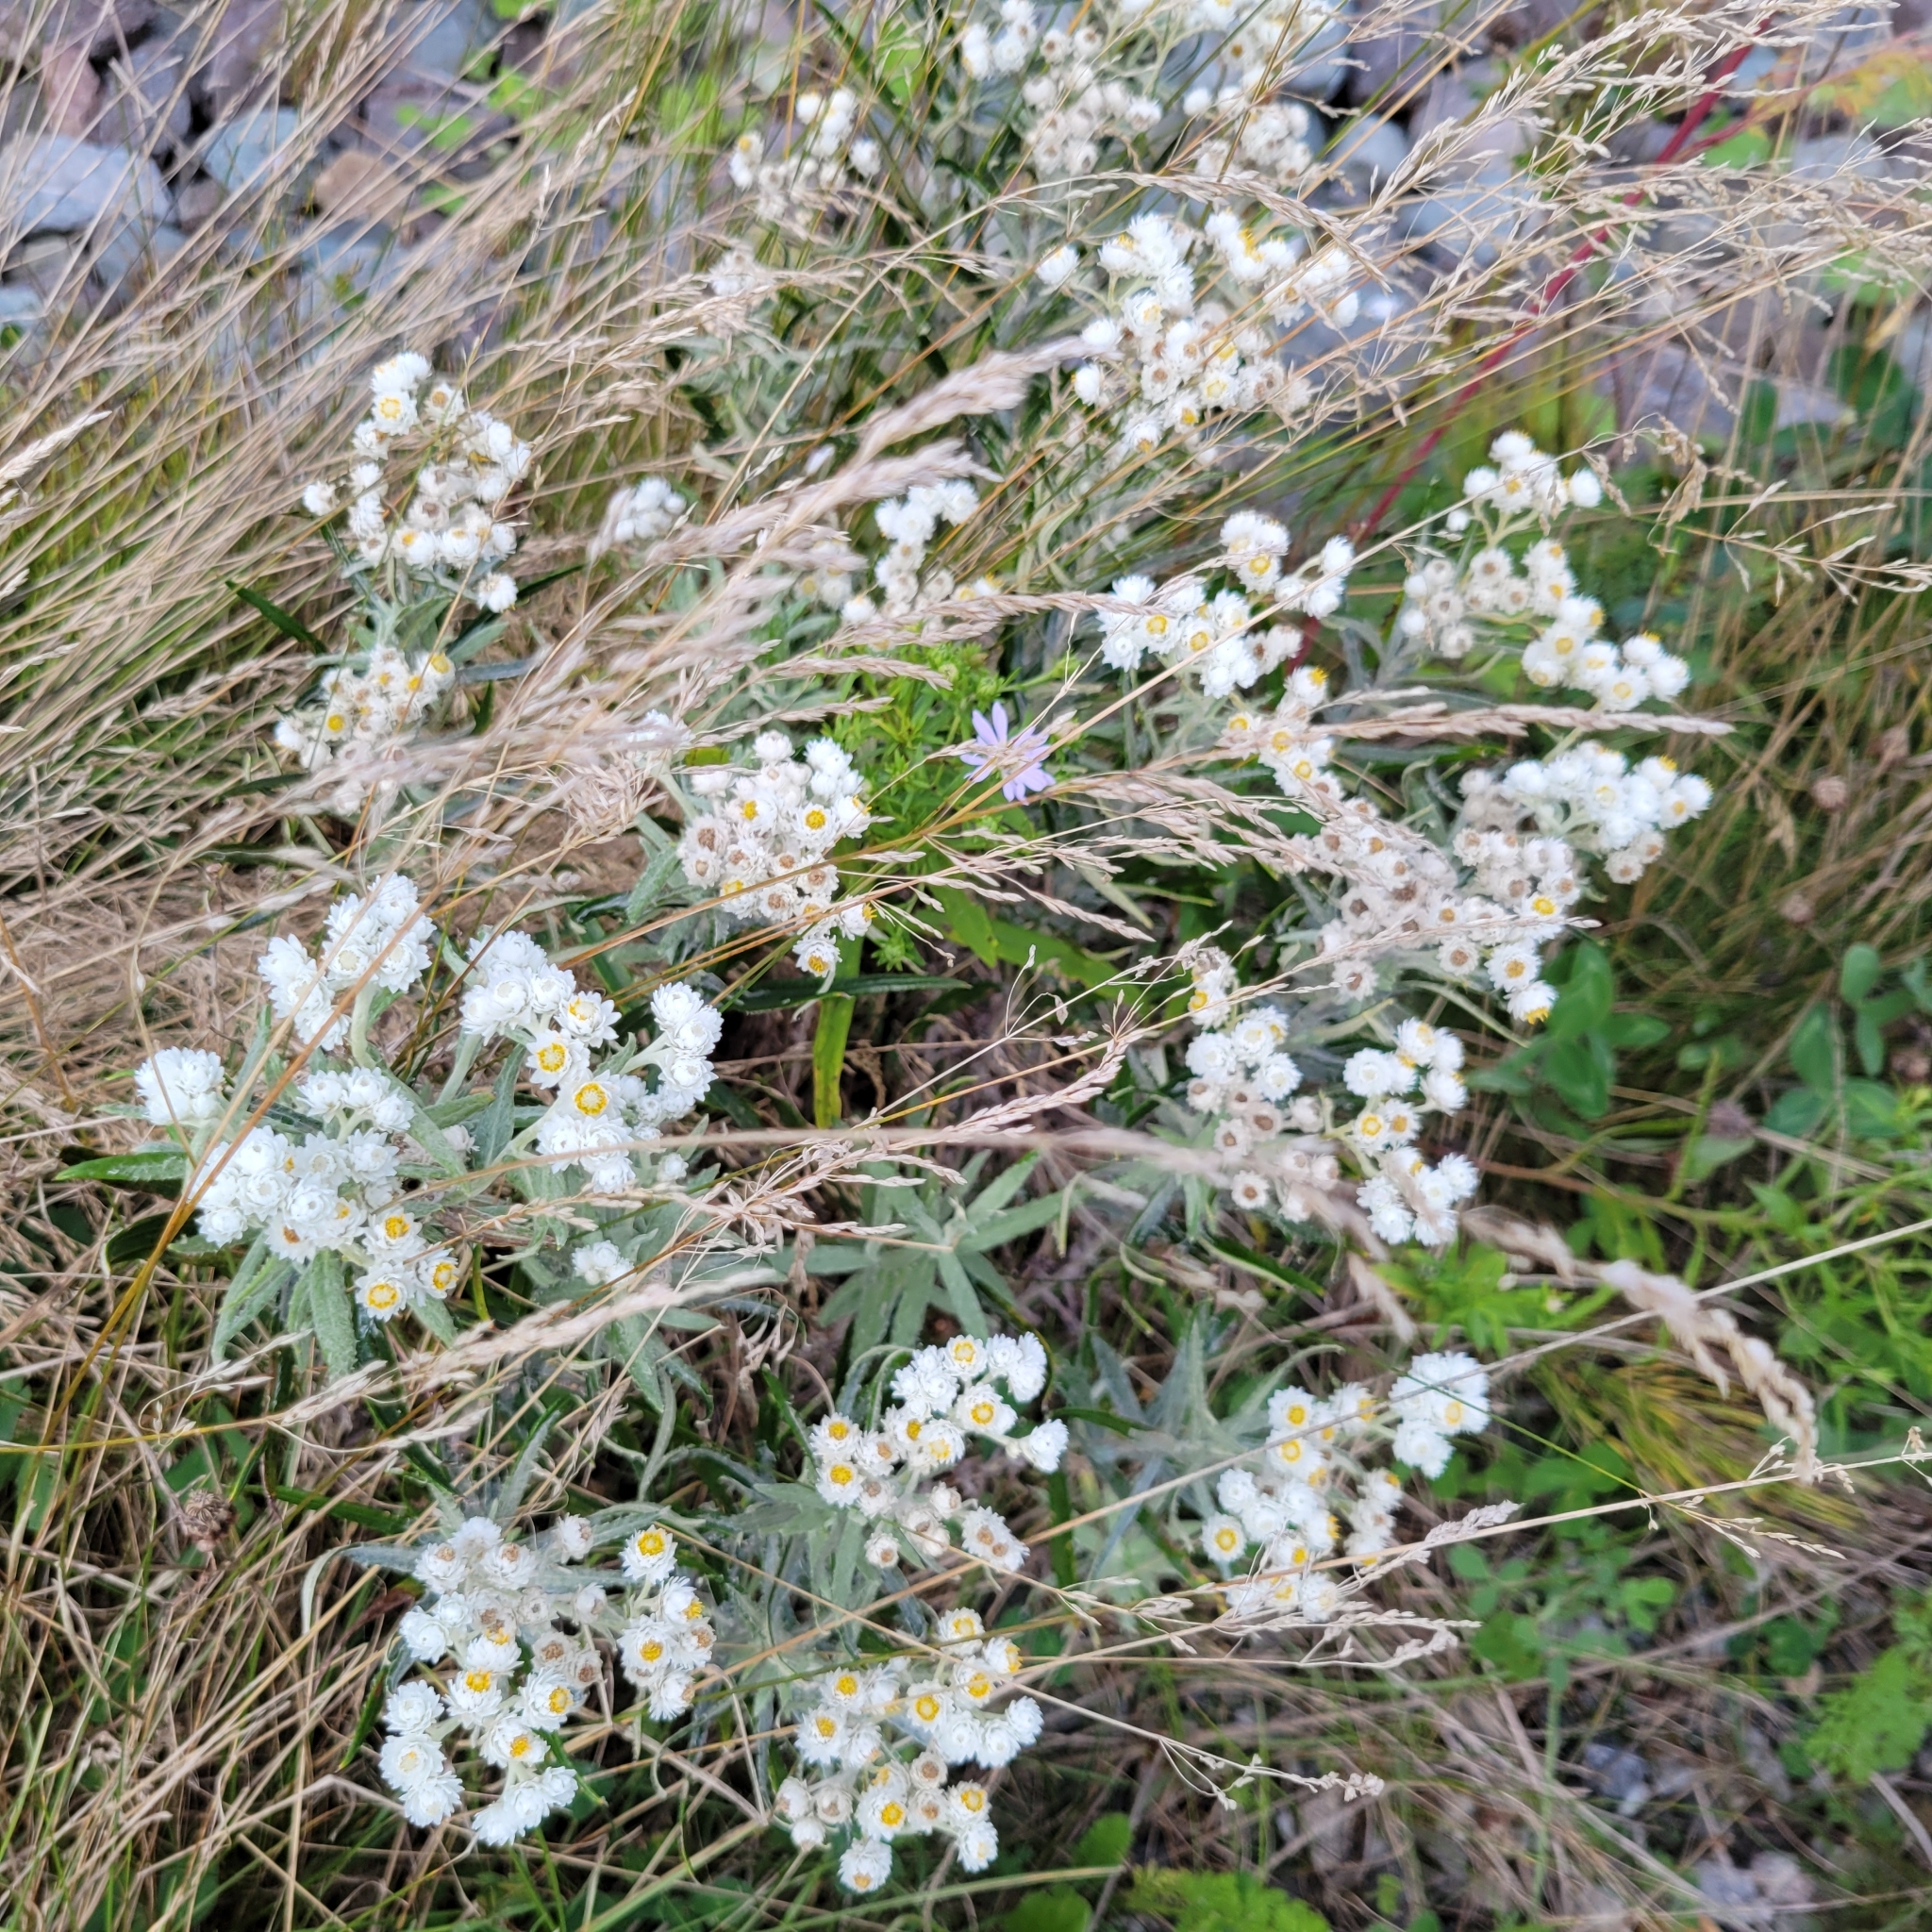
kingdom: Plantae
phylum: Tracheophyta
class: Magnoliopsida
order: Asterales
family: Asteraceae
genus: Anaphalis
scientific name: Anaphalis margaritacea
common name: Pearly everlasting
